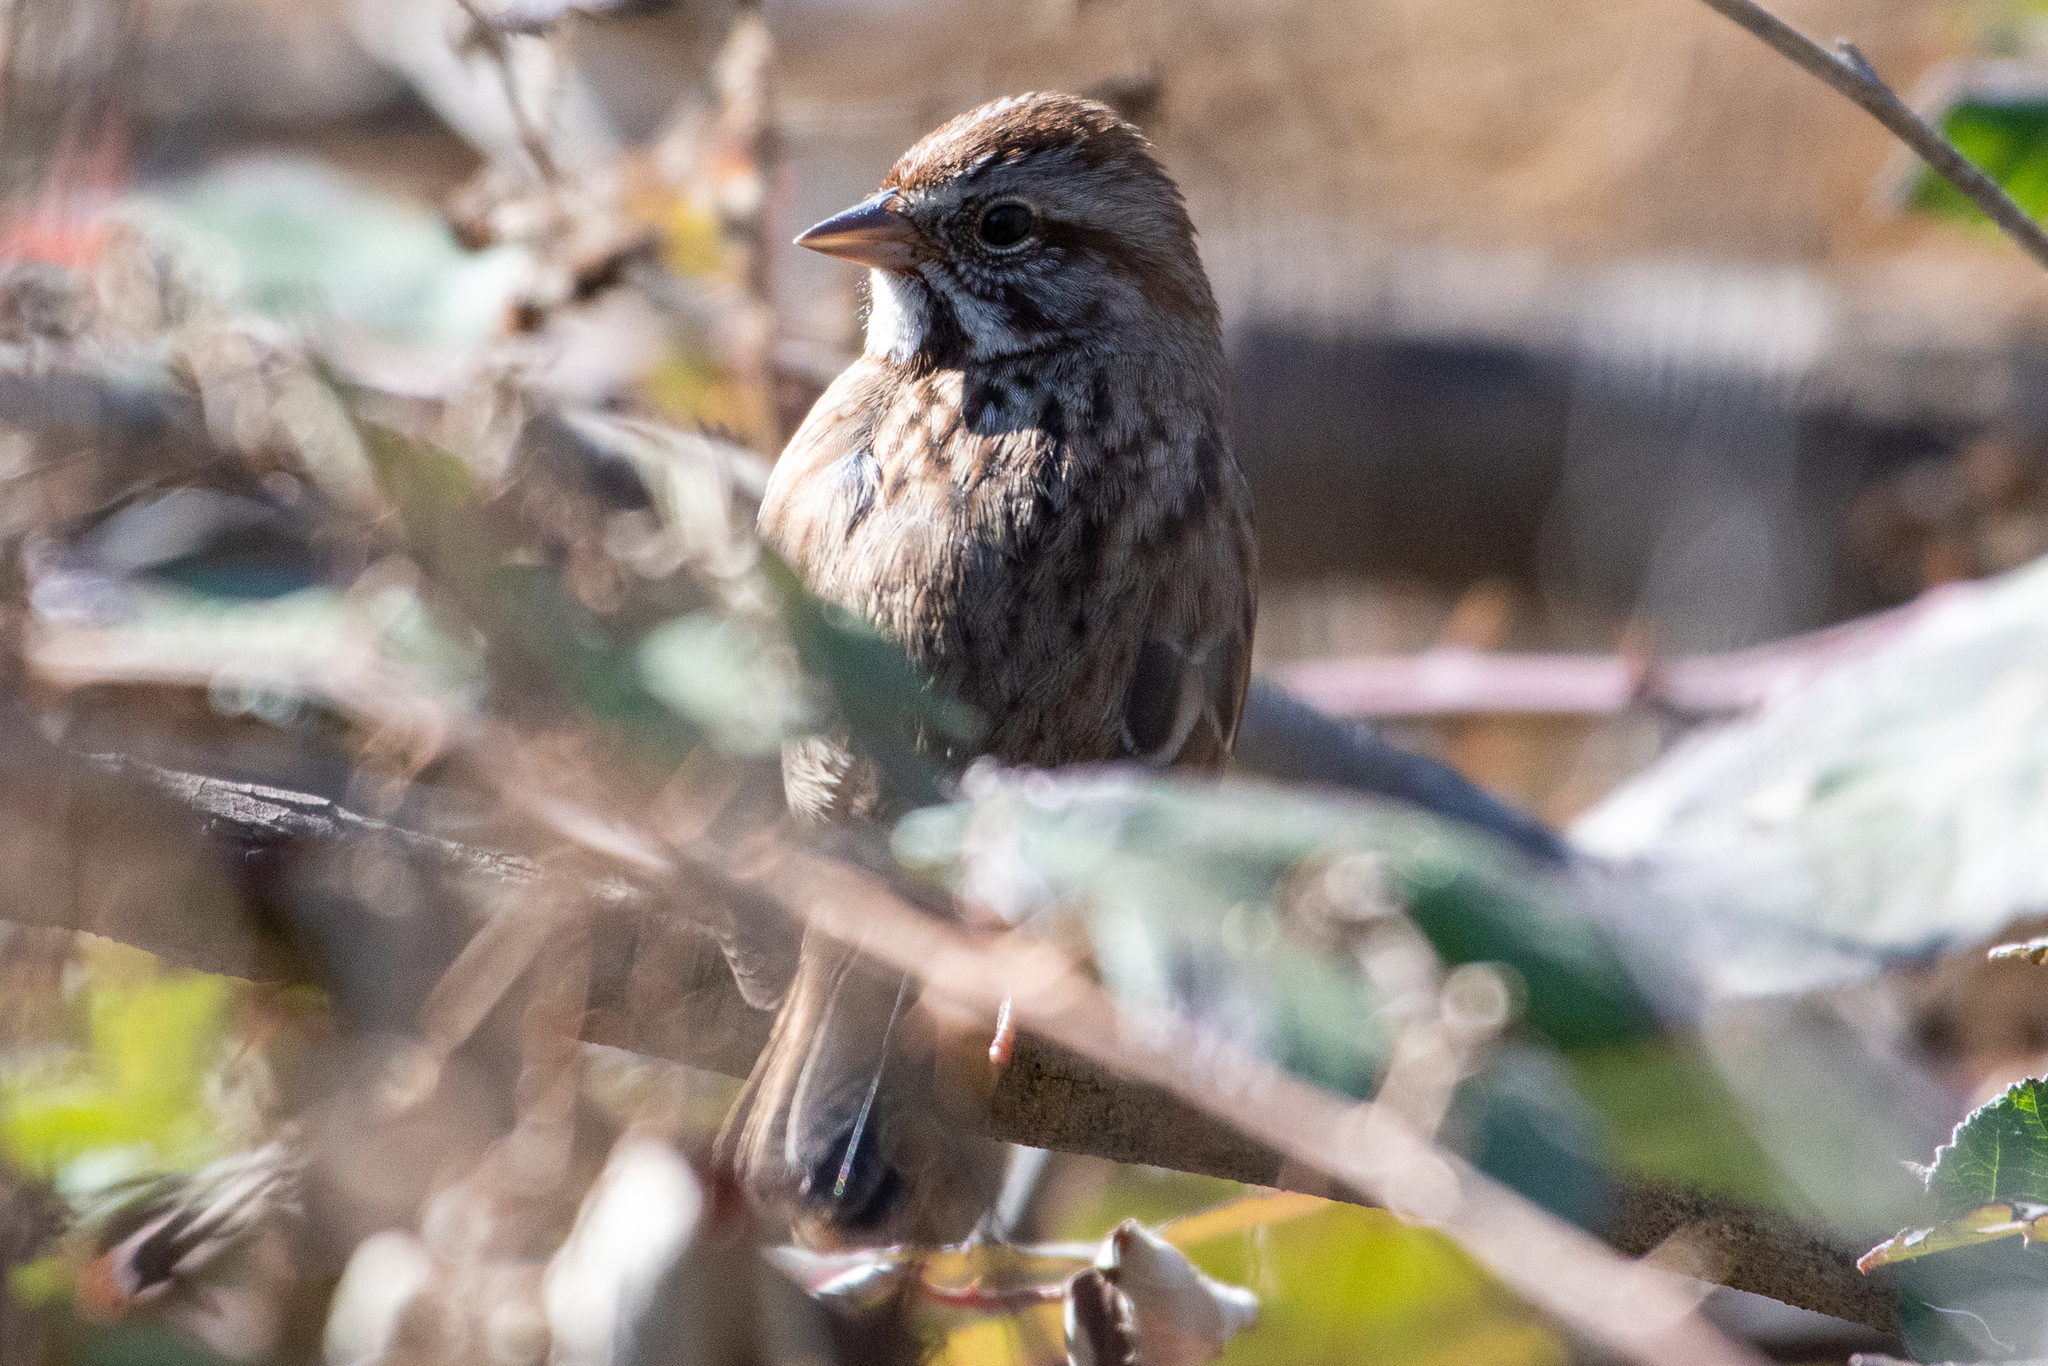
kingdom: Animalia
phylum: Chordata
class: Aves
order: Passeriformes
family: Passerellidae
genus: Melospiza
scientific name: Melospiza melodia
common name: Song sparrow
